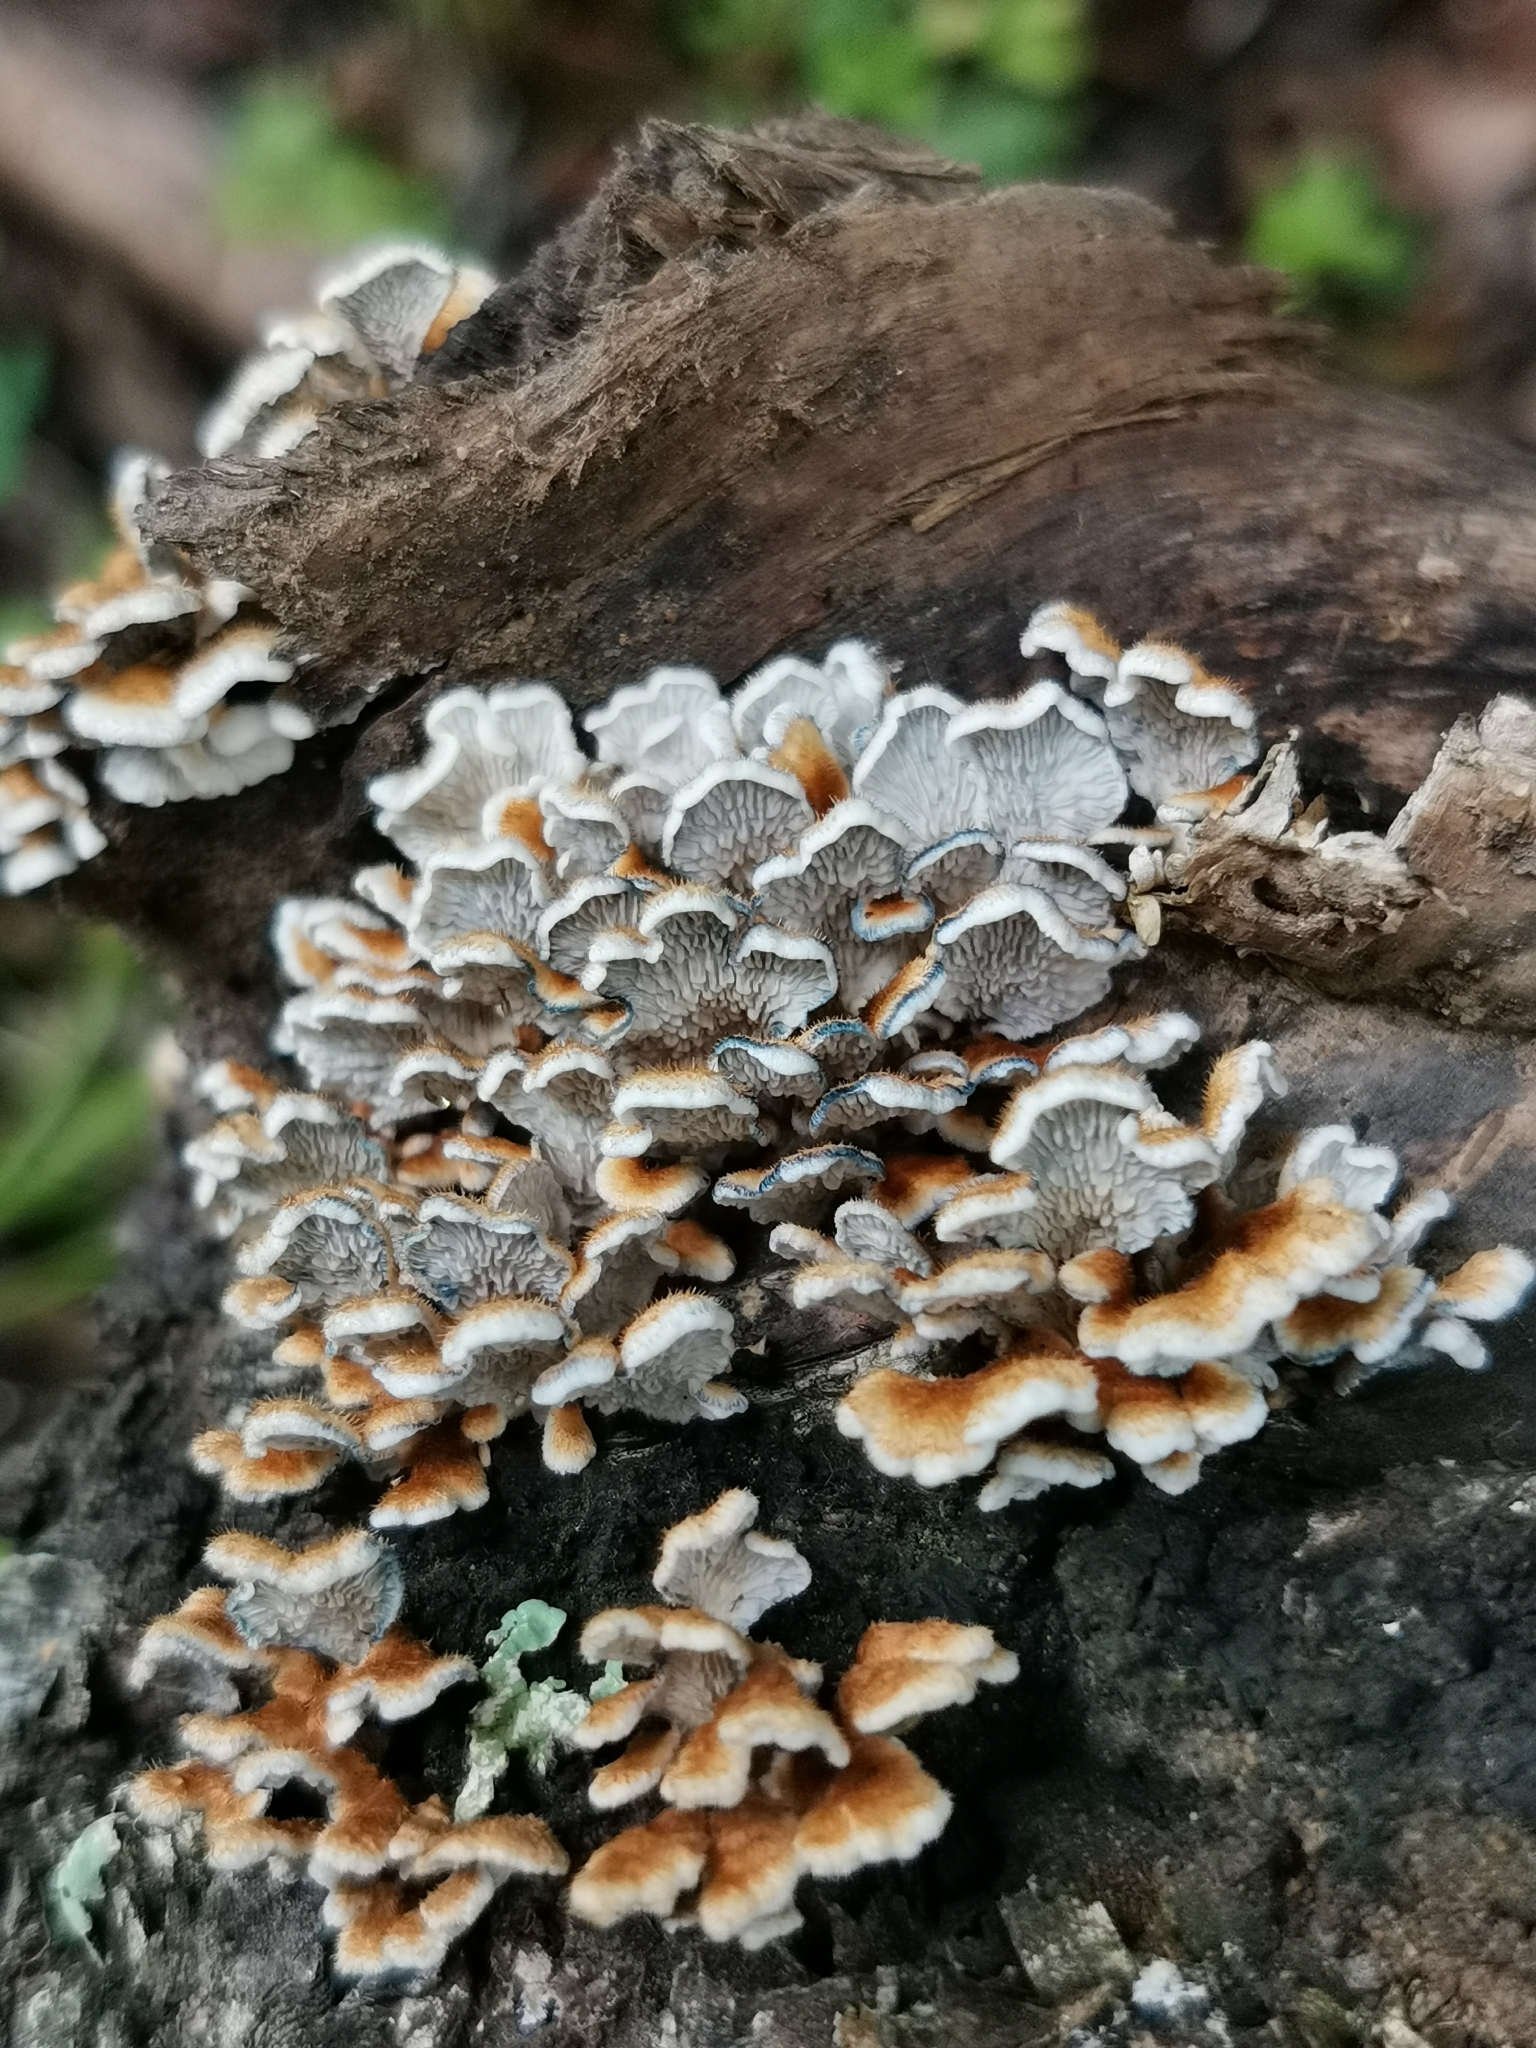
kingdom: Fungi
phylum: Basidiomycota
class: Agaricomycetes
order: Amylocorticiales
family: Amylocorticiaceae
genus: Plicaturopsis
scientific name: Plicaturopsis crispa
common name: Crimped gill
